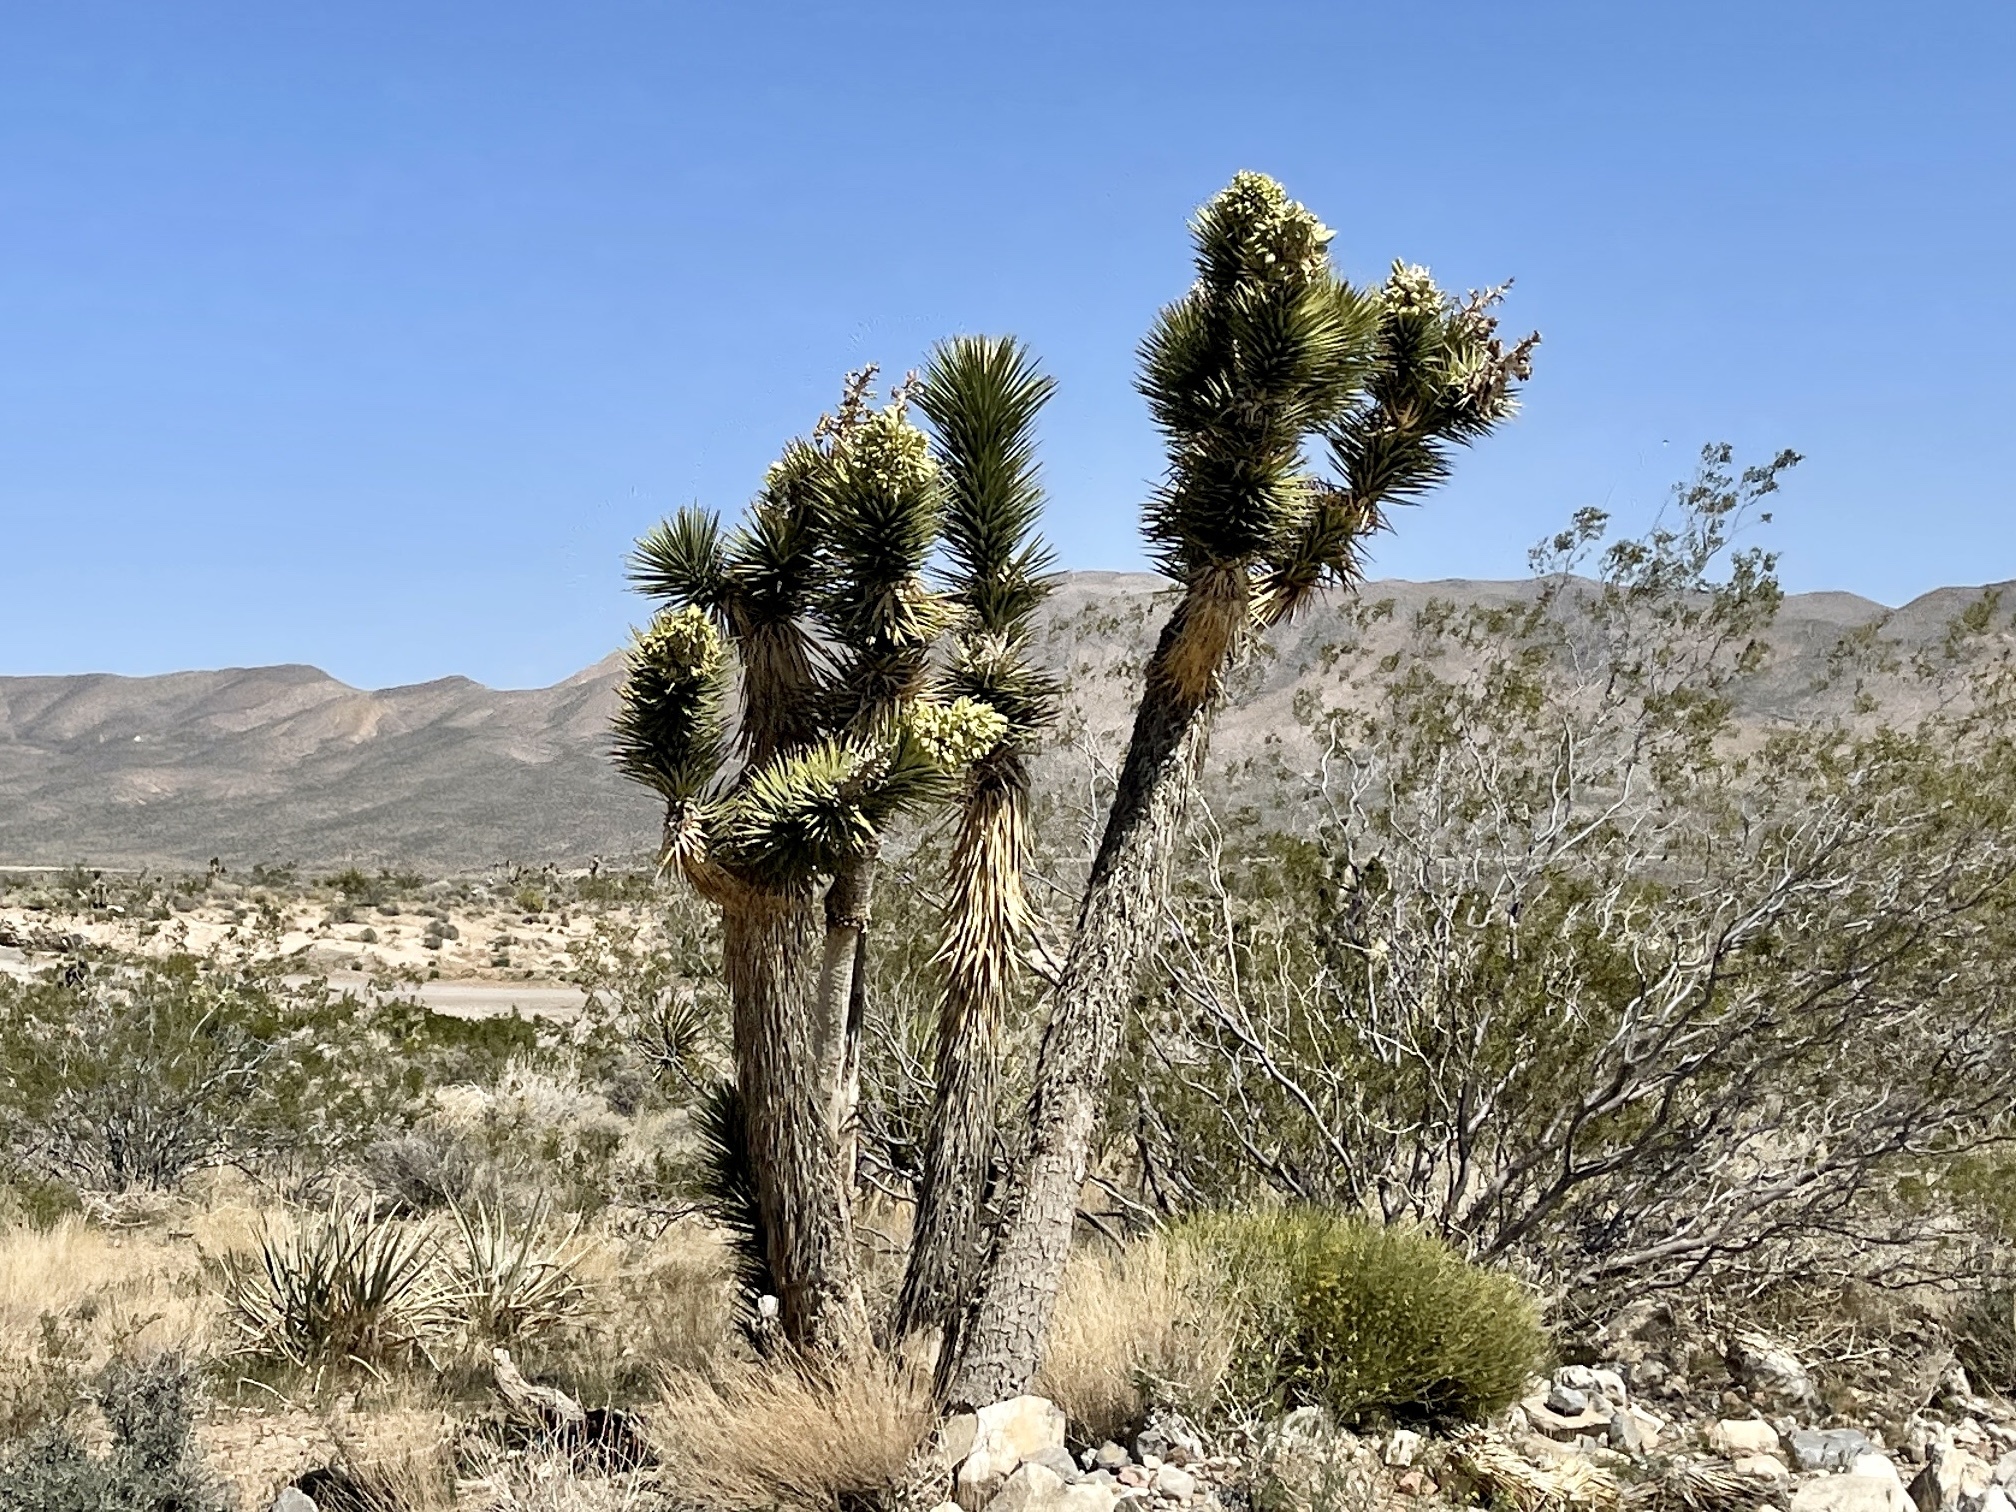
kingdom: Plantae
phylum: Tracheophyta
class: Liliopsida
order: Asparagales
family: Asparagaceae
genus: Yucca
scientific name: Yucca brevifolia
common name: Joshua tree
